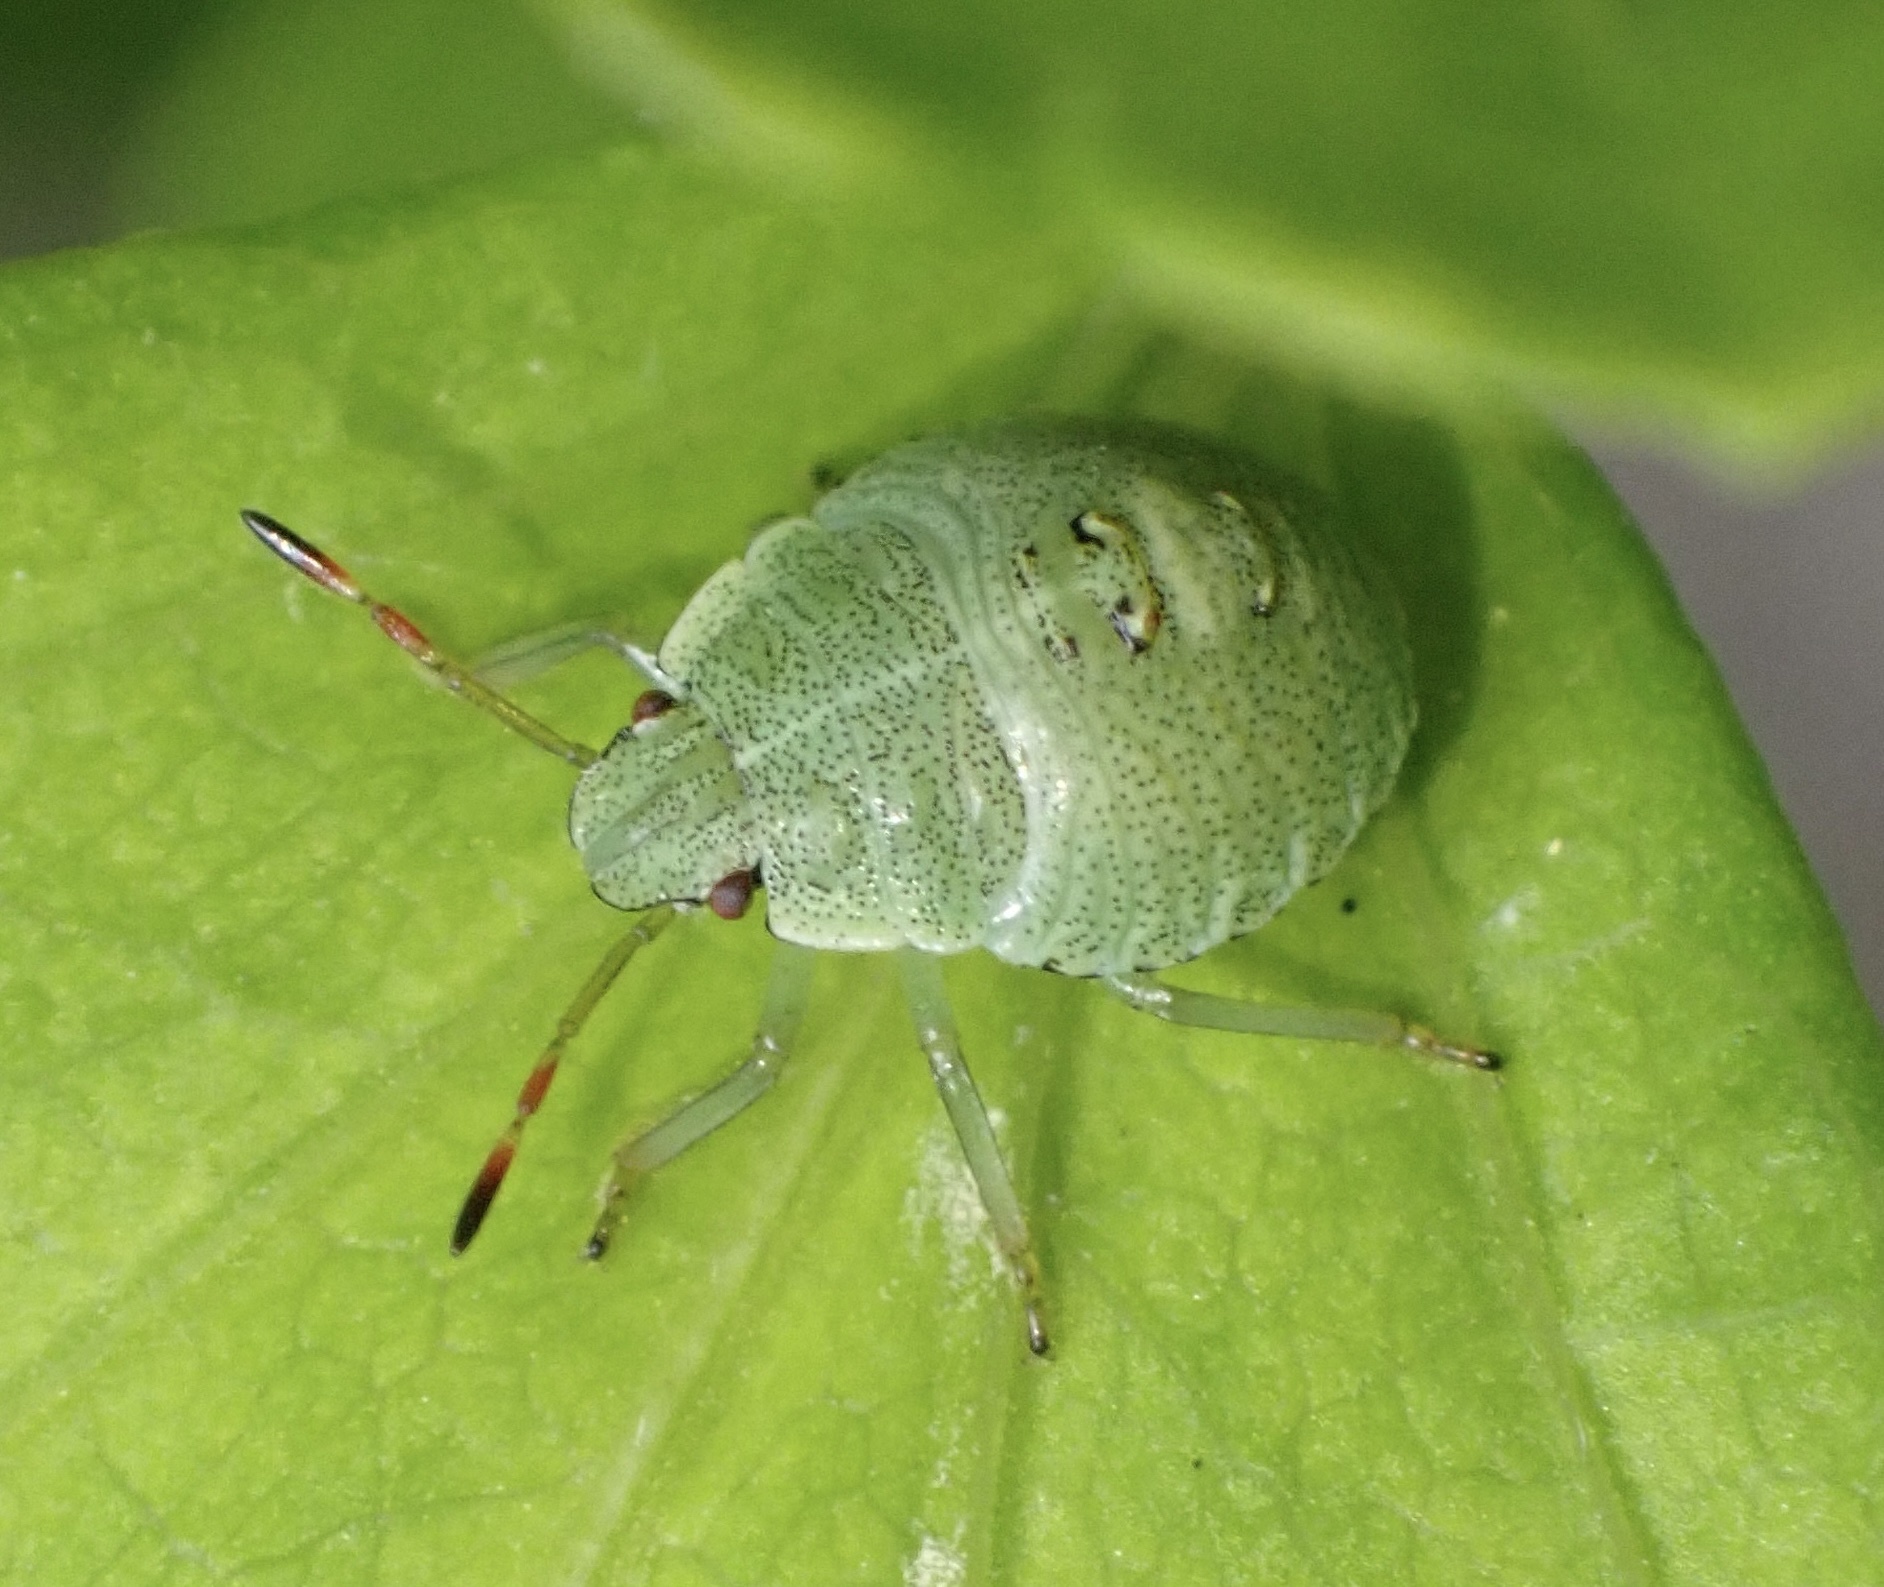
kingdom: Animalia
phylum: Arthropoda
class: Insecta
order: Hemiptera
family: Pentatomidae
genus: Palomena
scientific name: Palomena prasina
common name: Green shieldbug
